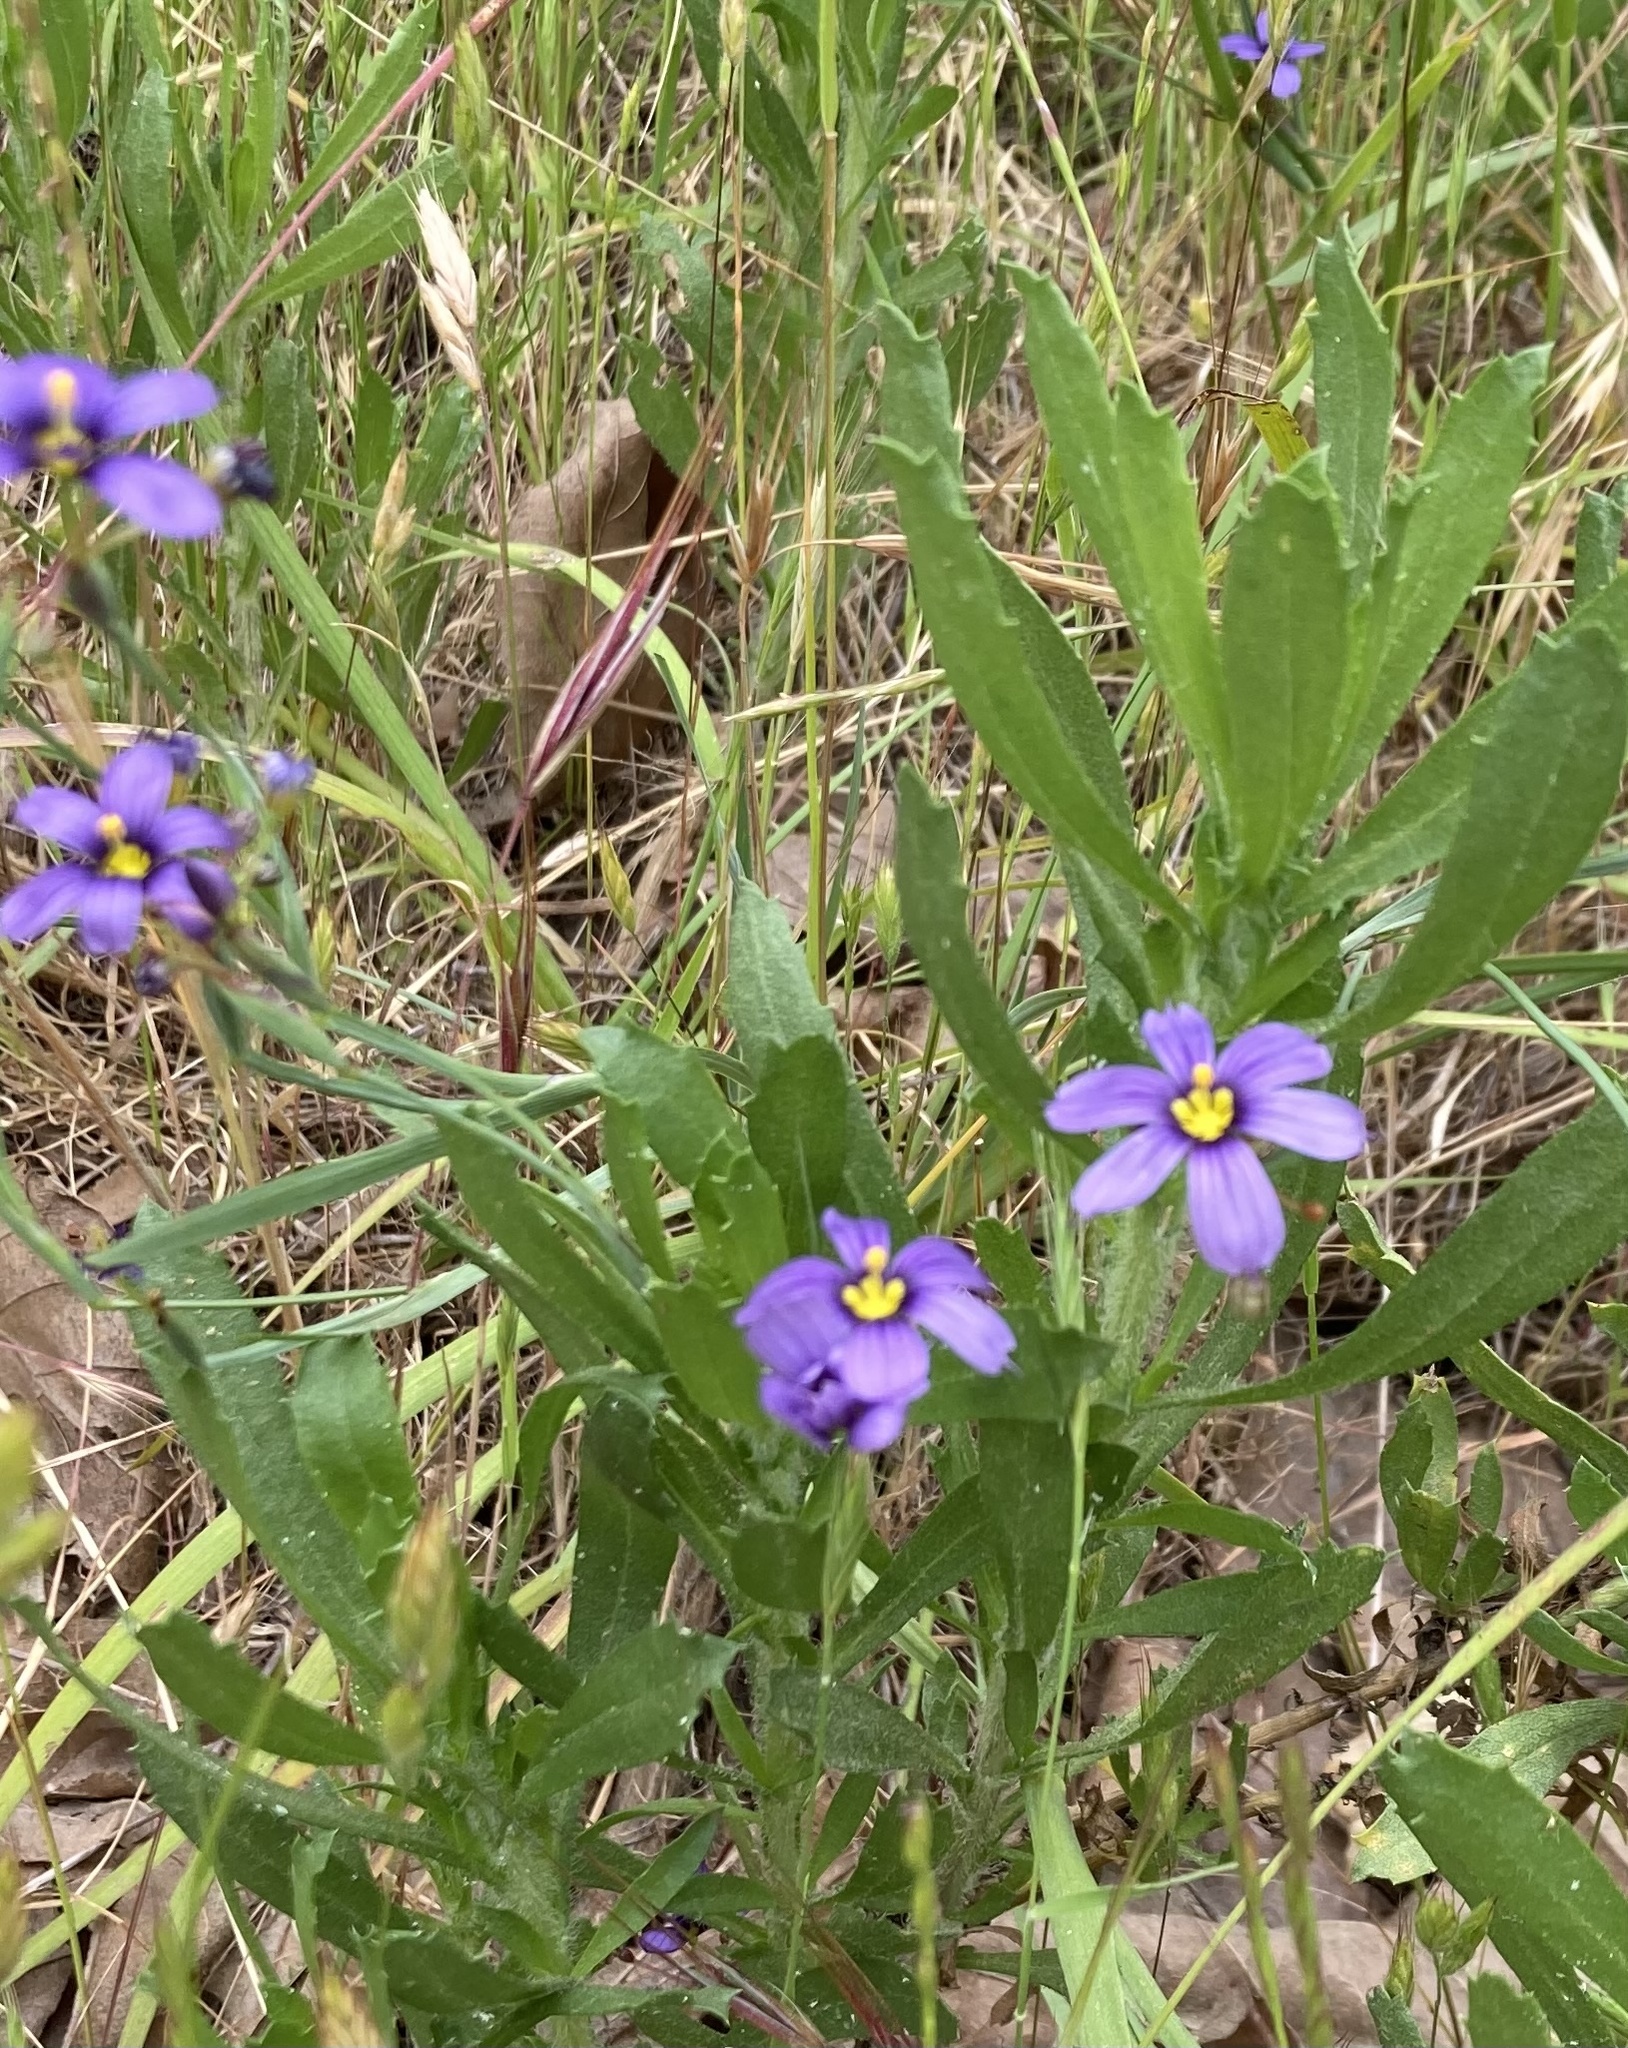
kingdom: Plantae
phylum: Tracheophyta
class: Liliopsida
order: Asparagales
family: Iridaceae
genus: Sisyrinchium
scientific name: Sisyrinchium bellum
